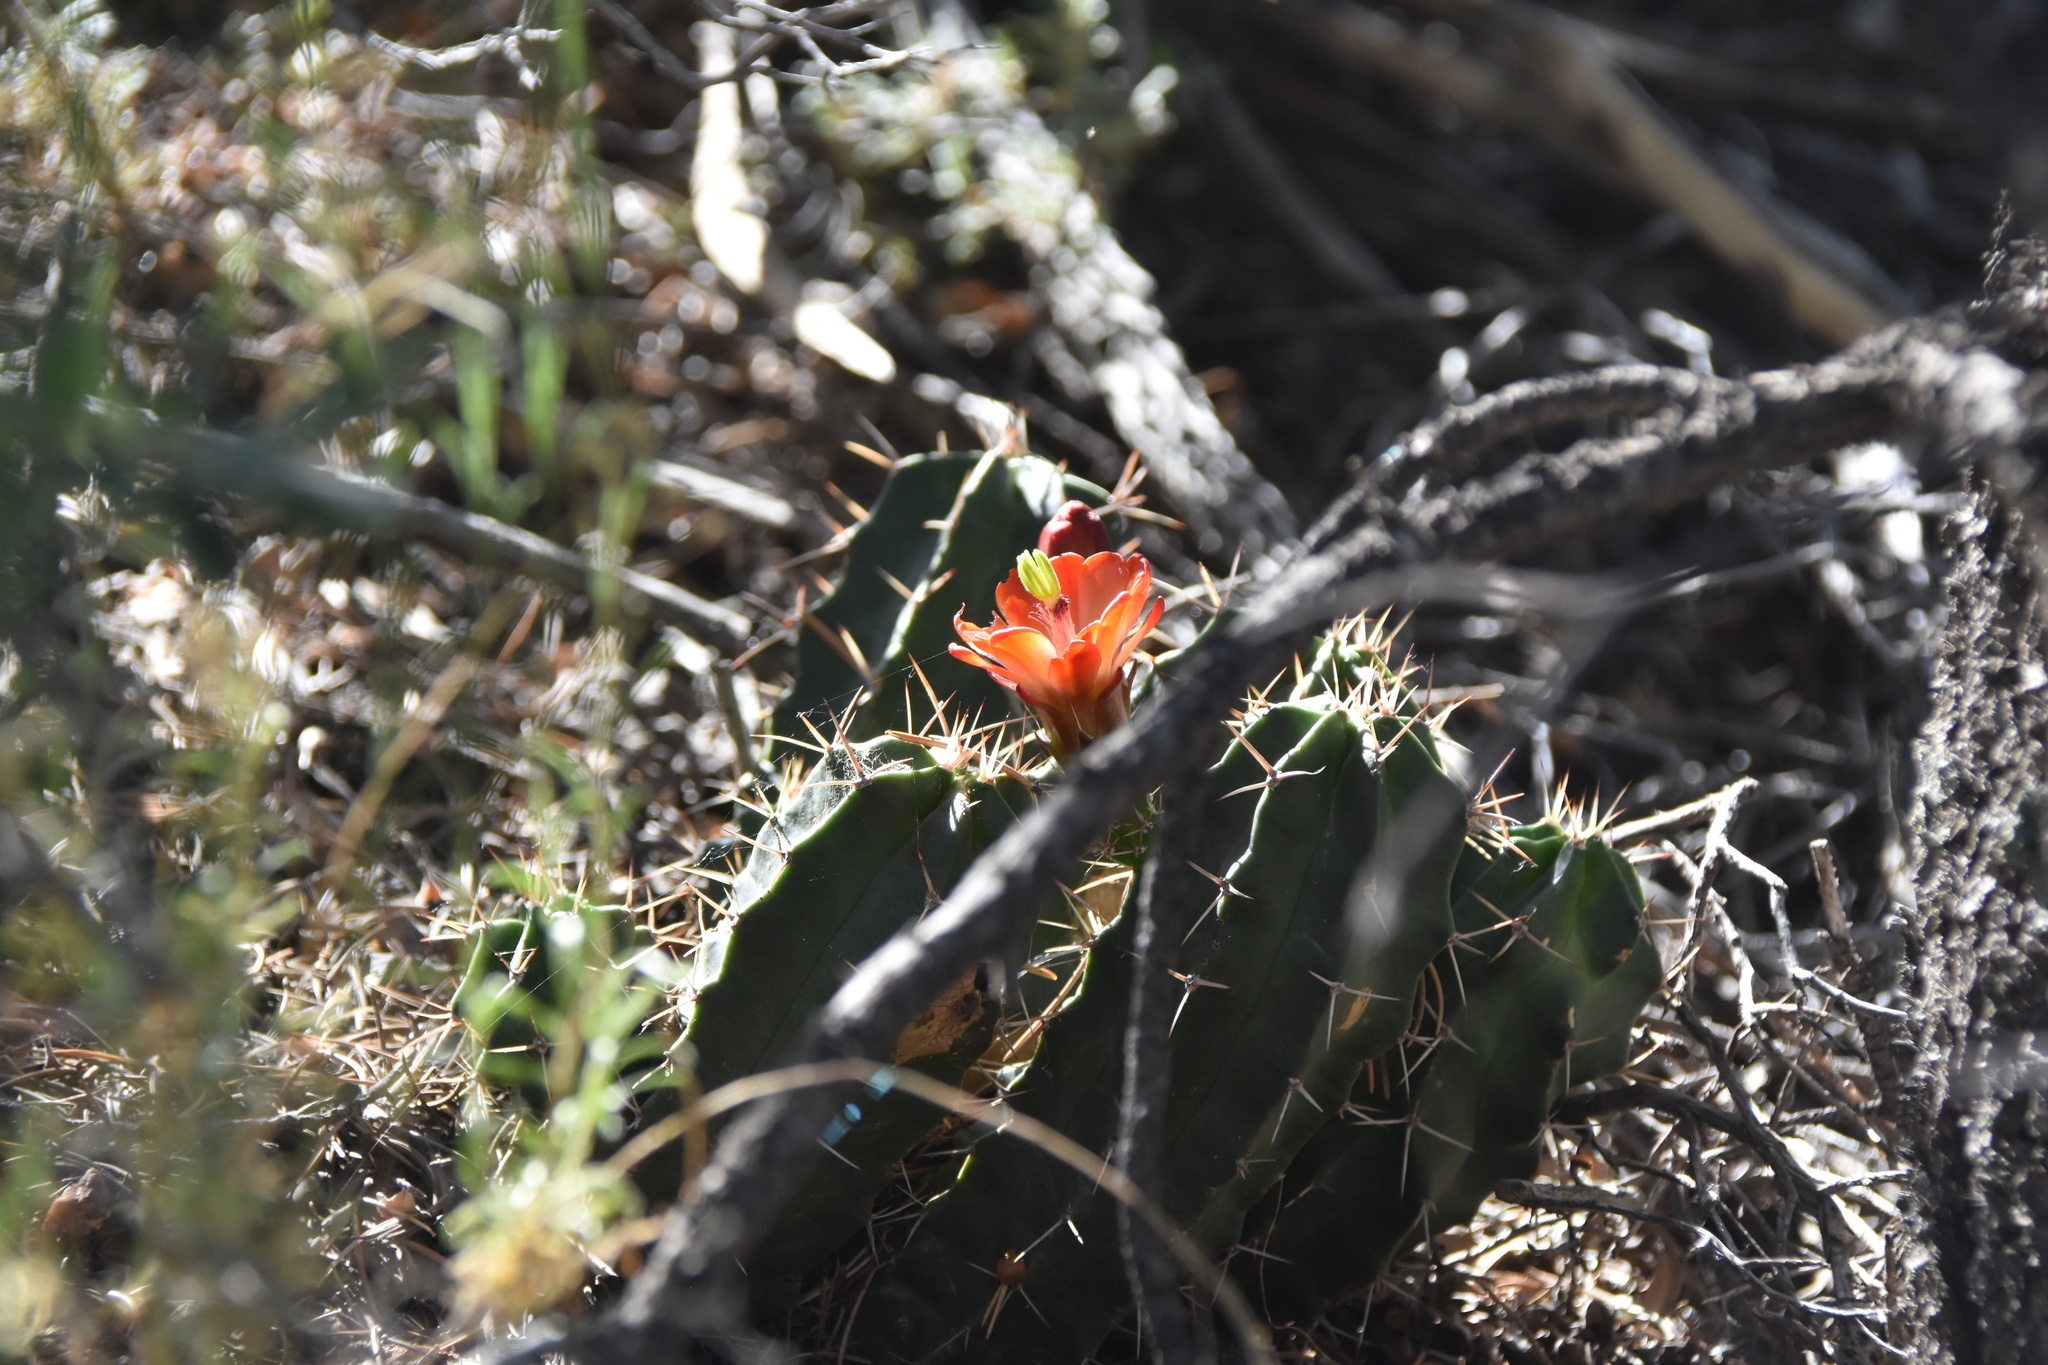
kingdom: Plantae
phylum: Tracheophyta
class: Magnoliopsida
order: Caryophyllales
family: Cactaceae
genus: Echinocereus
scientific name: Echinocereus triglochidiatus
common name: Claretcup hedgehog
